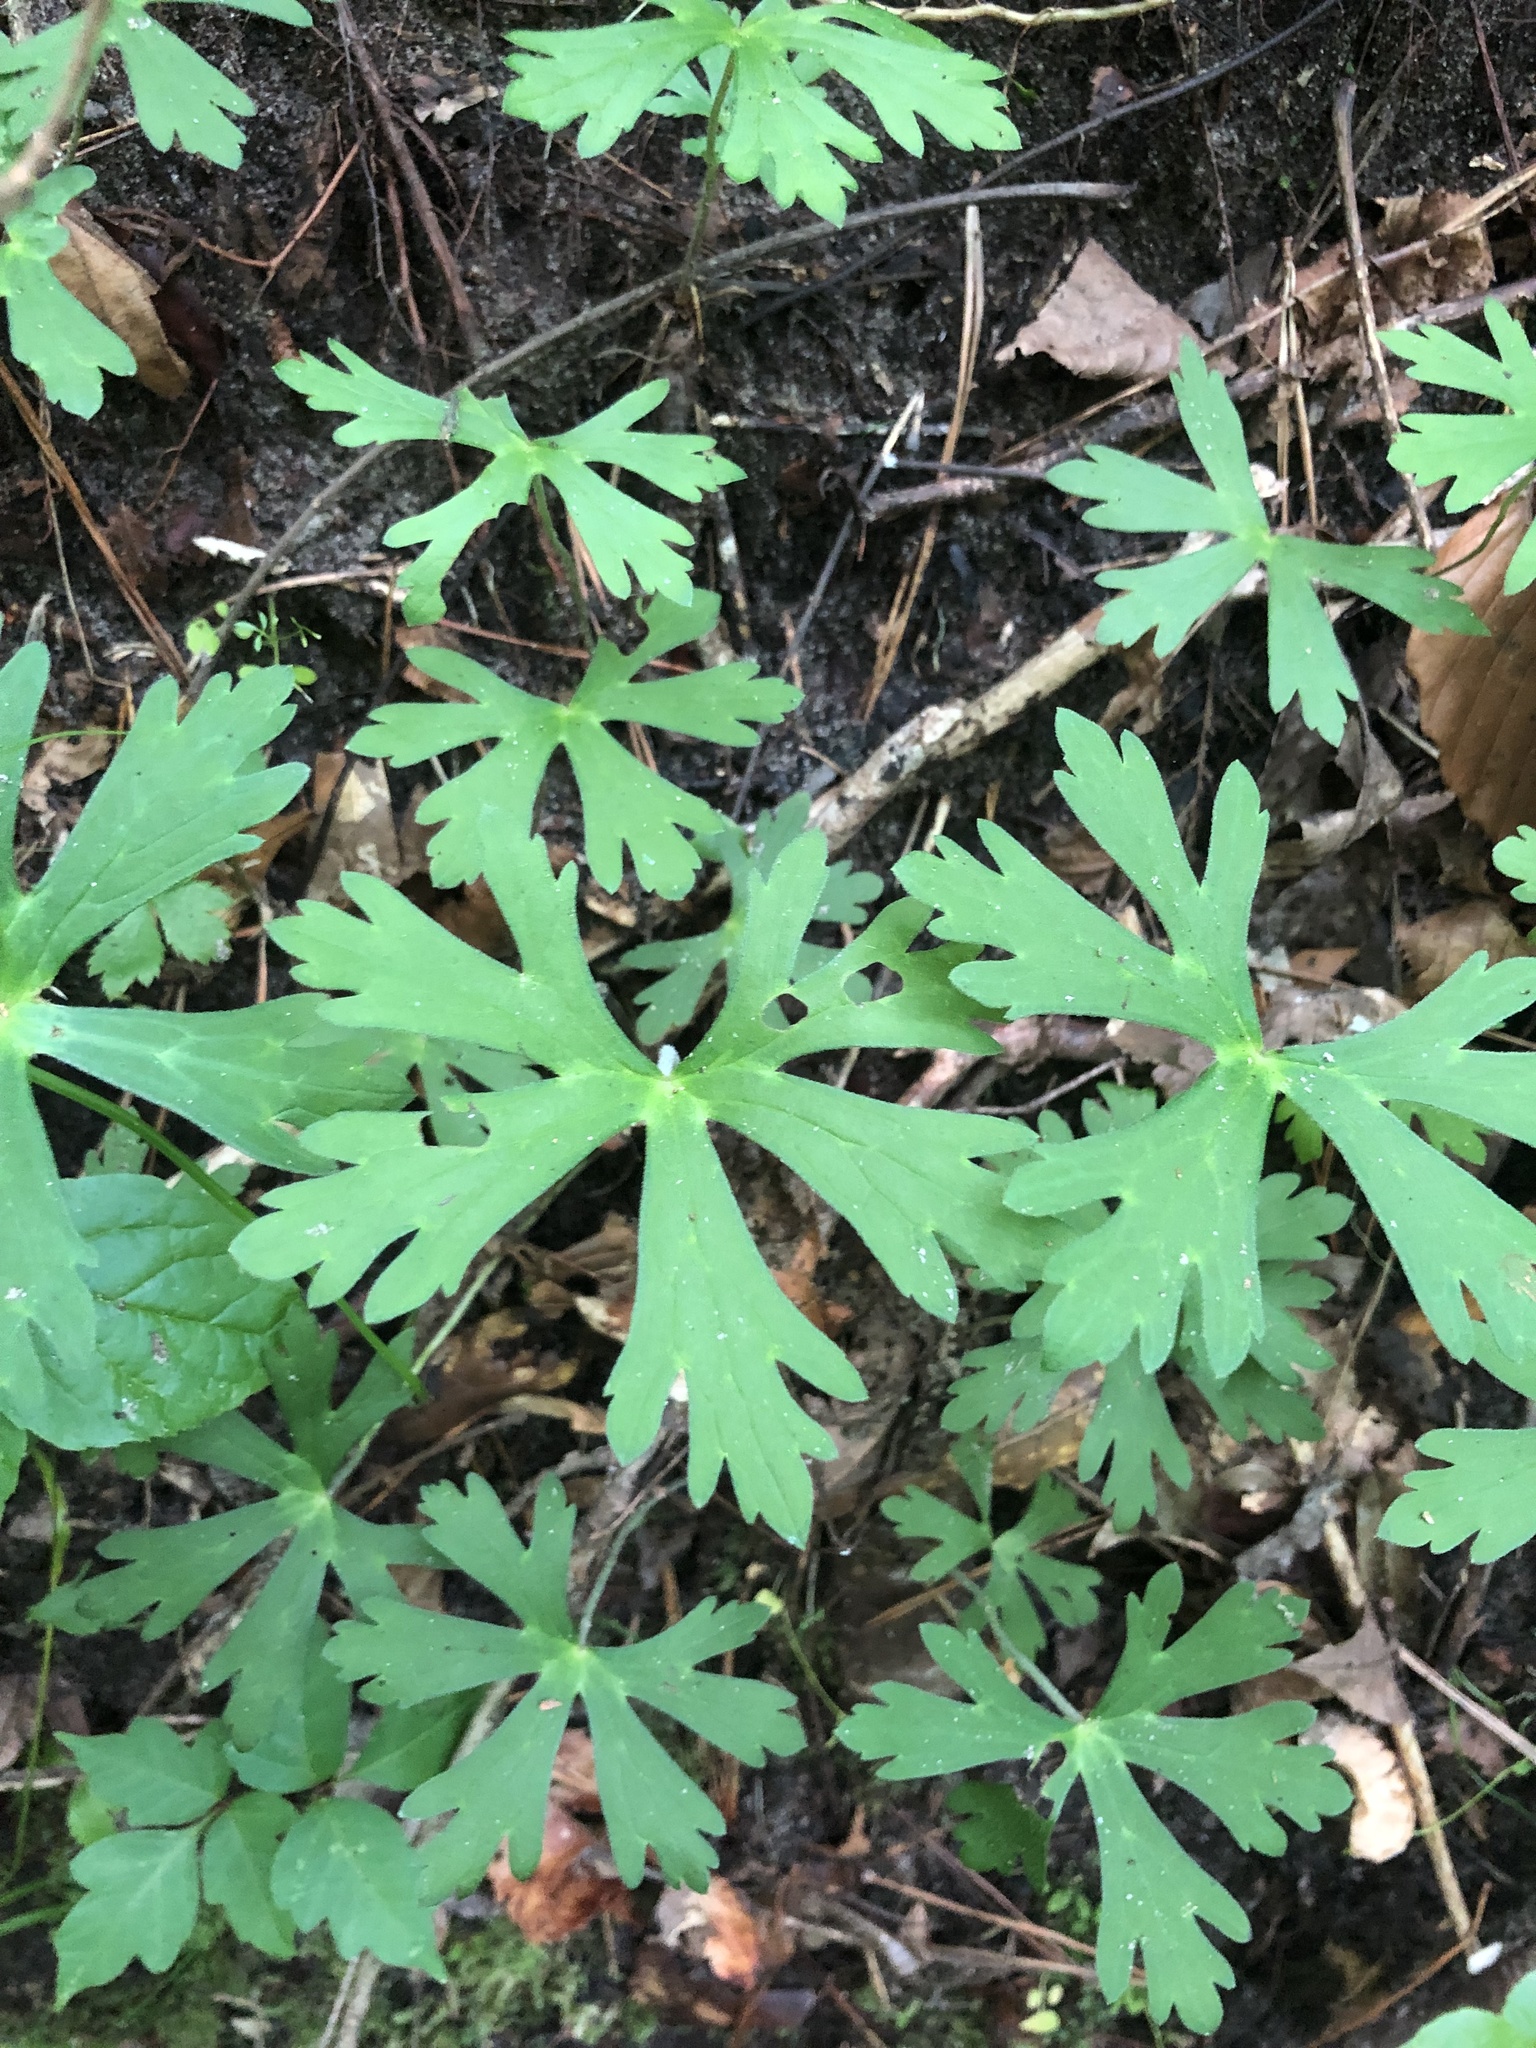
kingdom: Plantae
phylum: Tracheophyta
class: Magnoliopsida
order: Geraniales
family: Geraniaceae
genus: Geranium
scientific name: Geranium maculatum
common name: Spotted geranium
